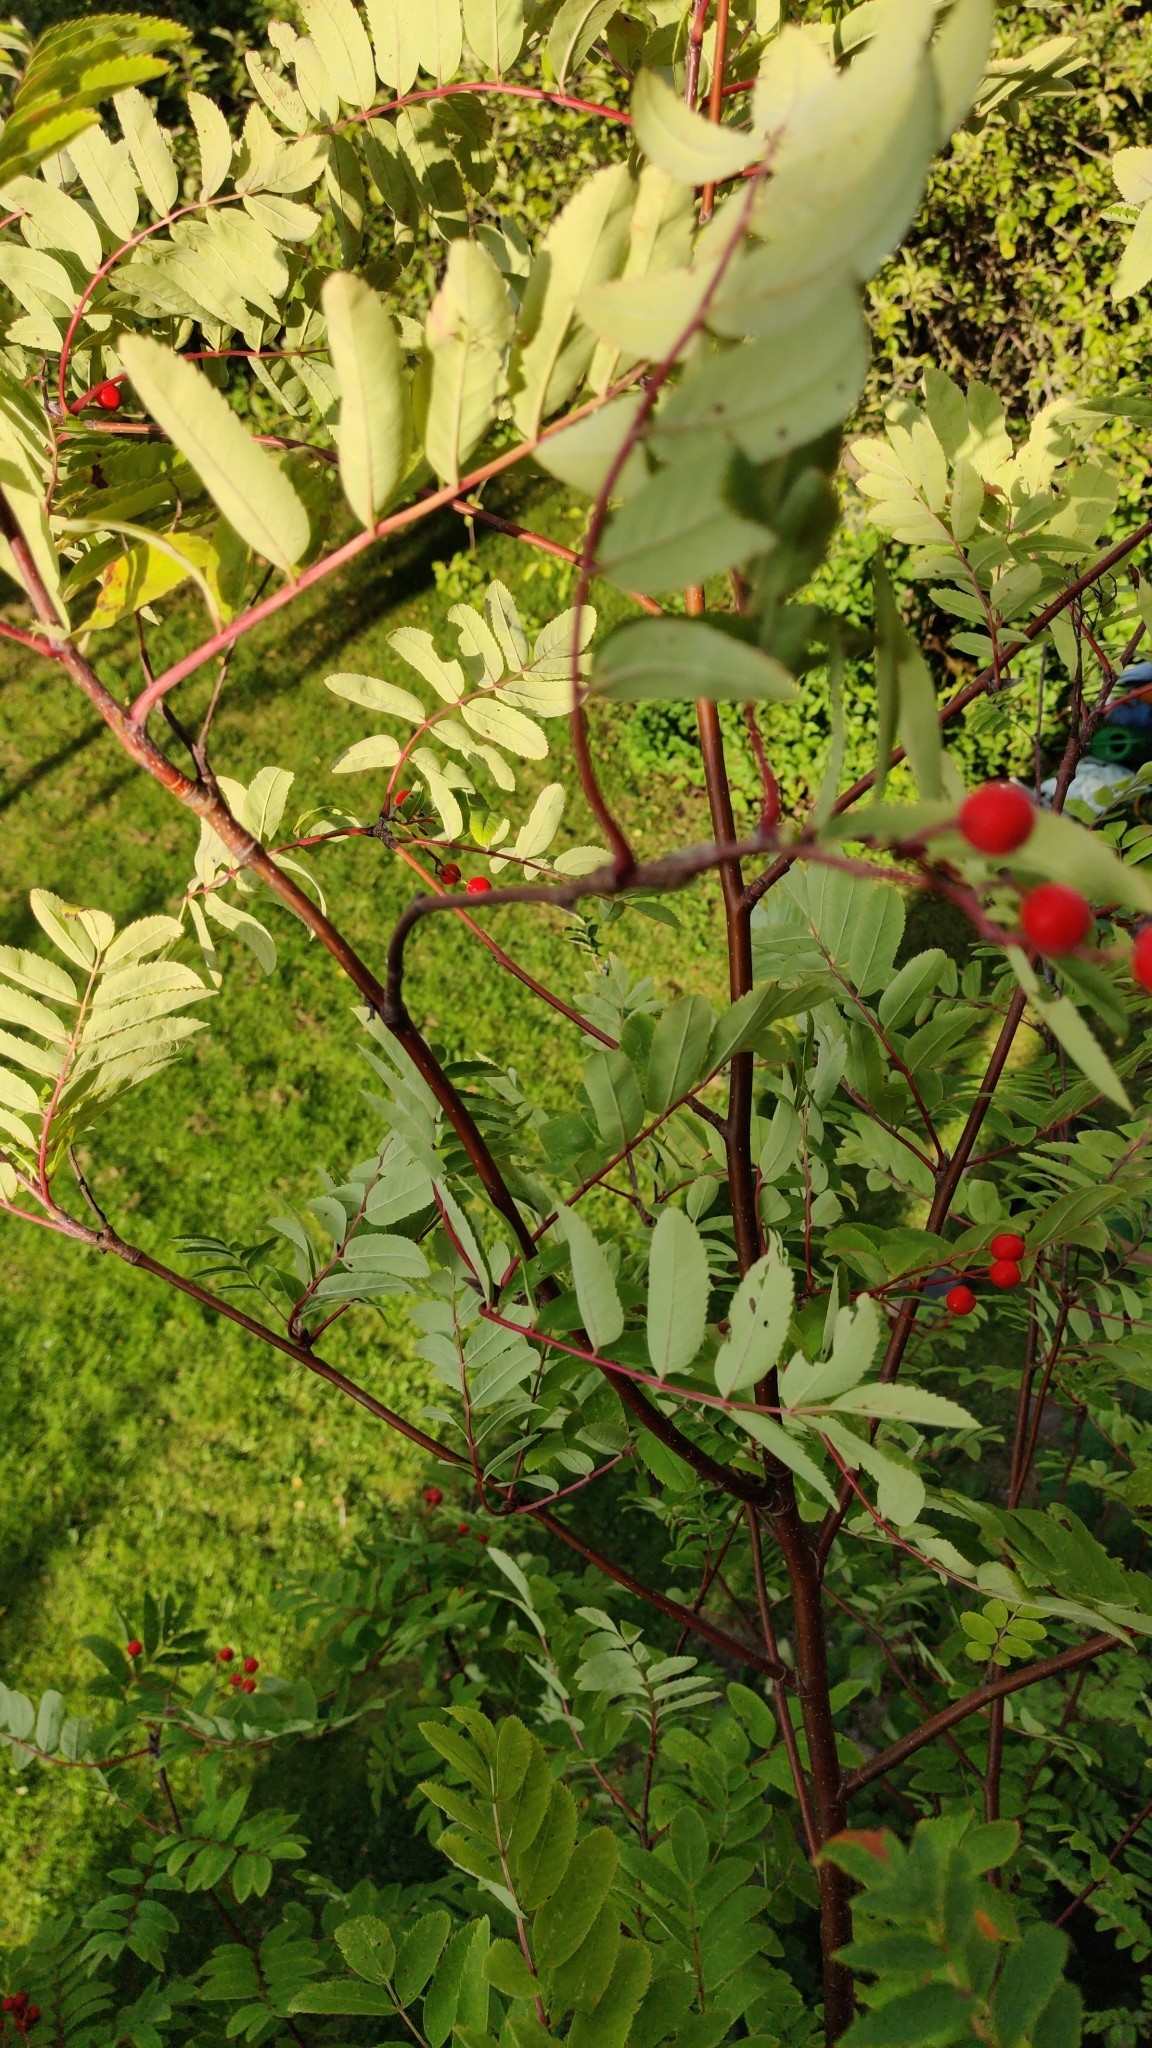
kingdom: Plantae
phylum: Tracheophyta
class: Magnoliopsida
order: Rosales
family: Rosaceae
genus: Sorbus
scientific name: Sorbus aucuparia
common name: Rowan
